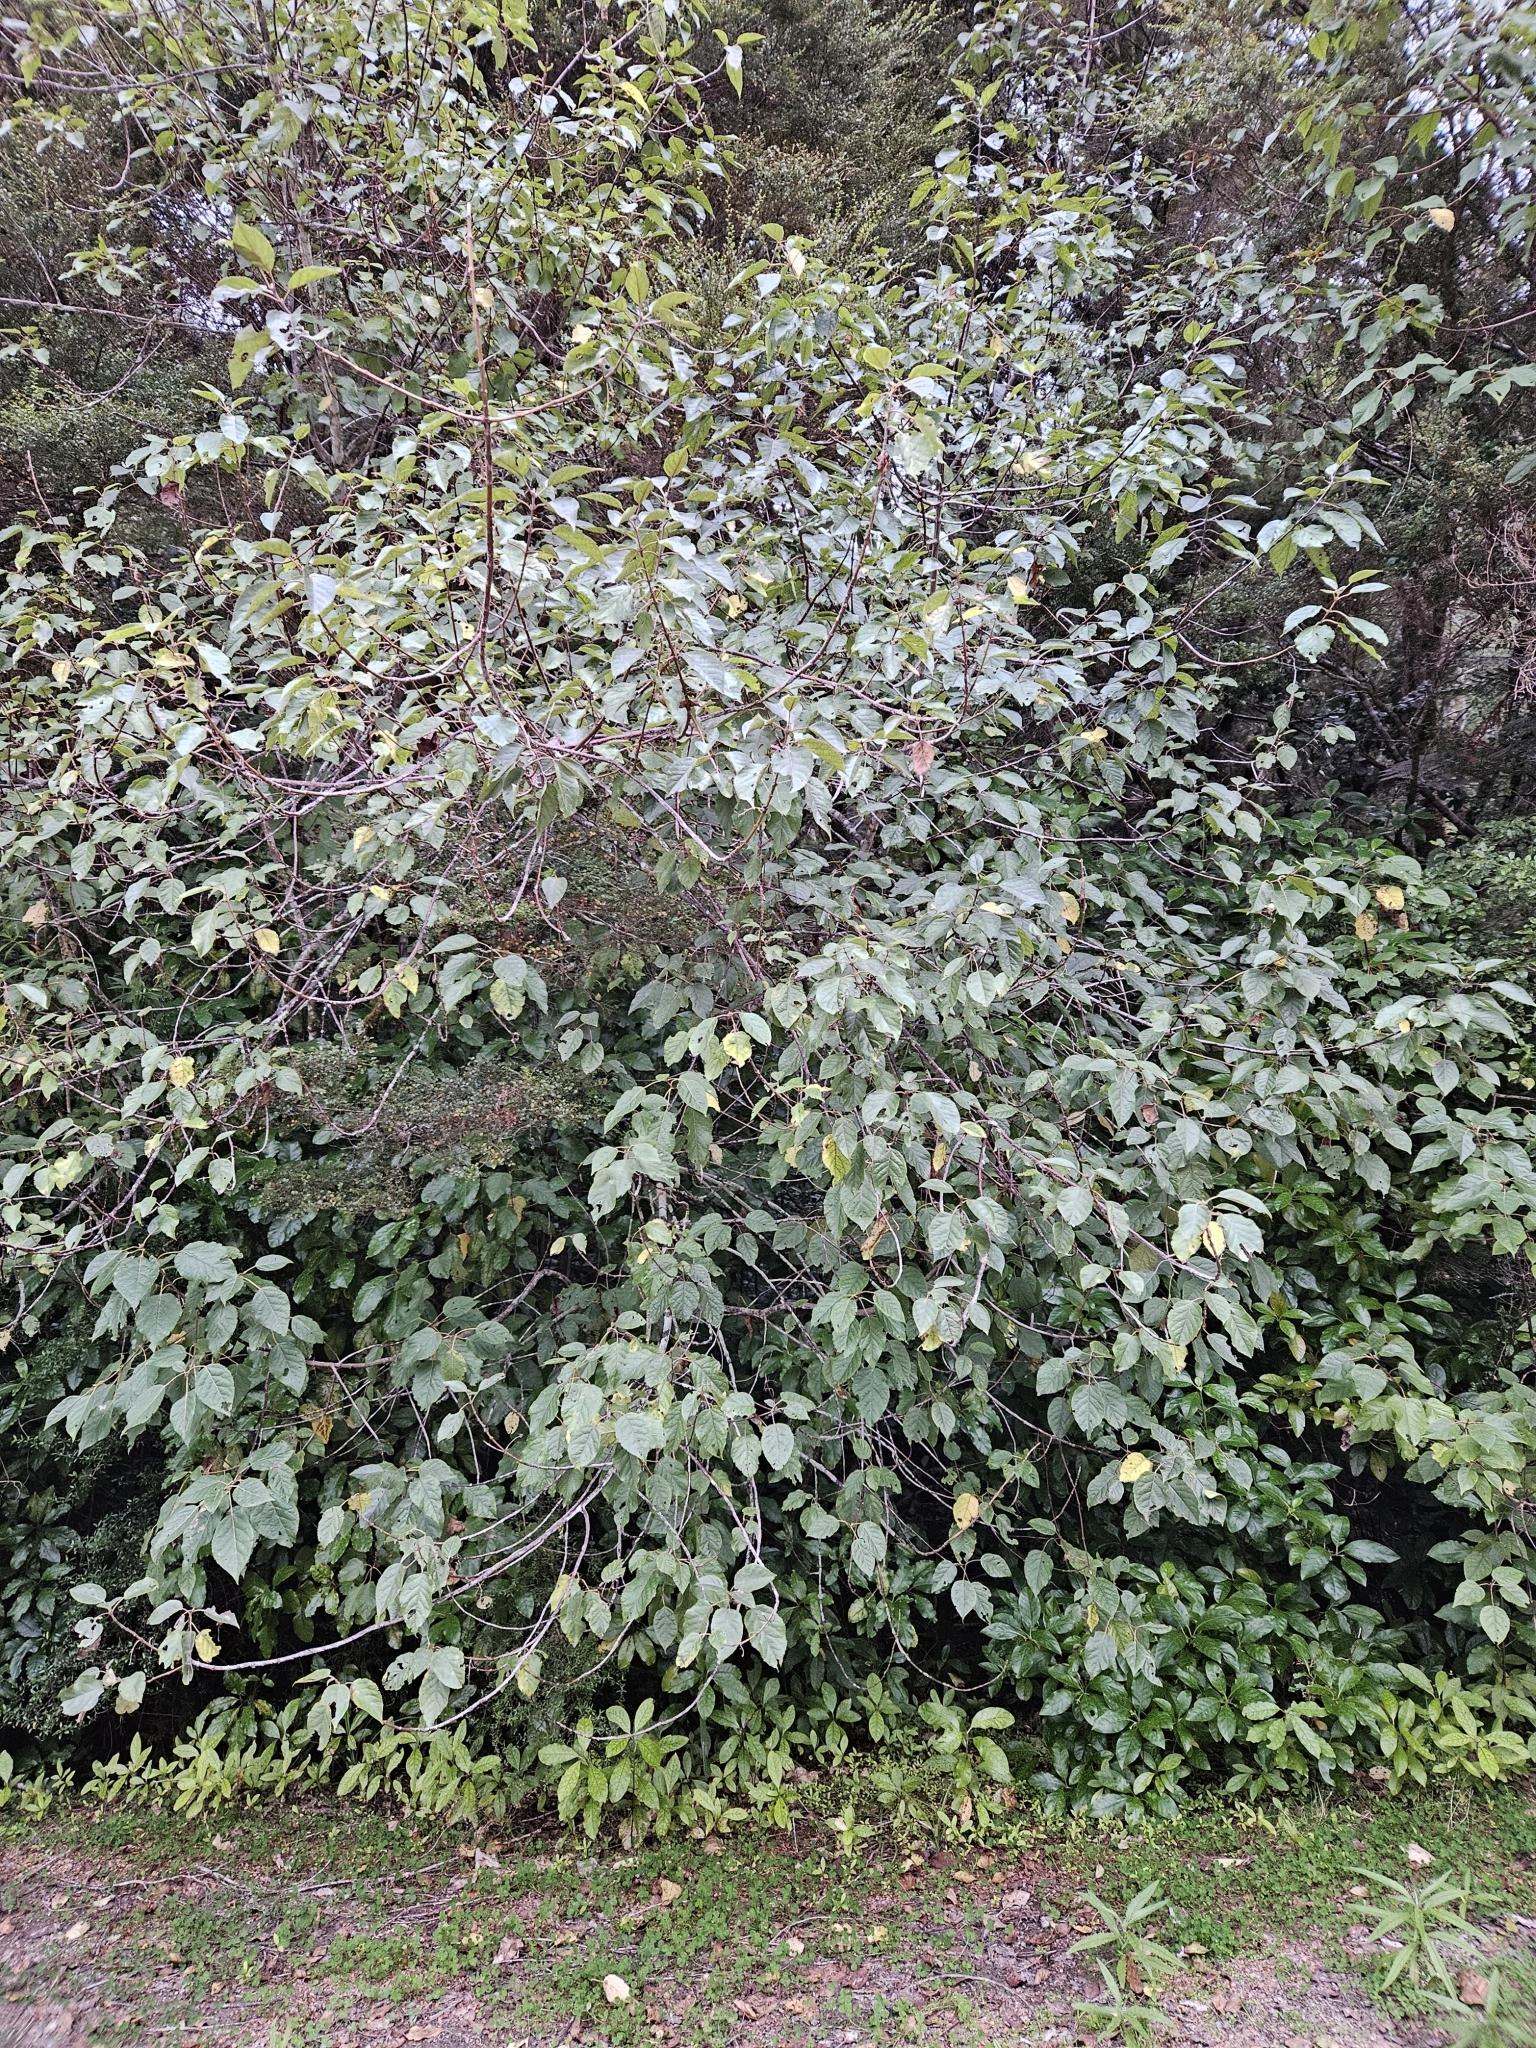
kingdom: Plantae
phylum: Tracheophyta
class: Magnoliopsida
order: Oxalidales
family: Elaeocarpaceae
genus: Aristotelia
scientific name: Aristotelia serrata
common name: New zealand wineberry
